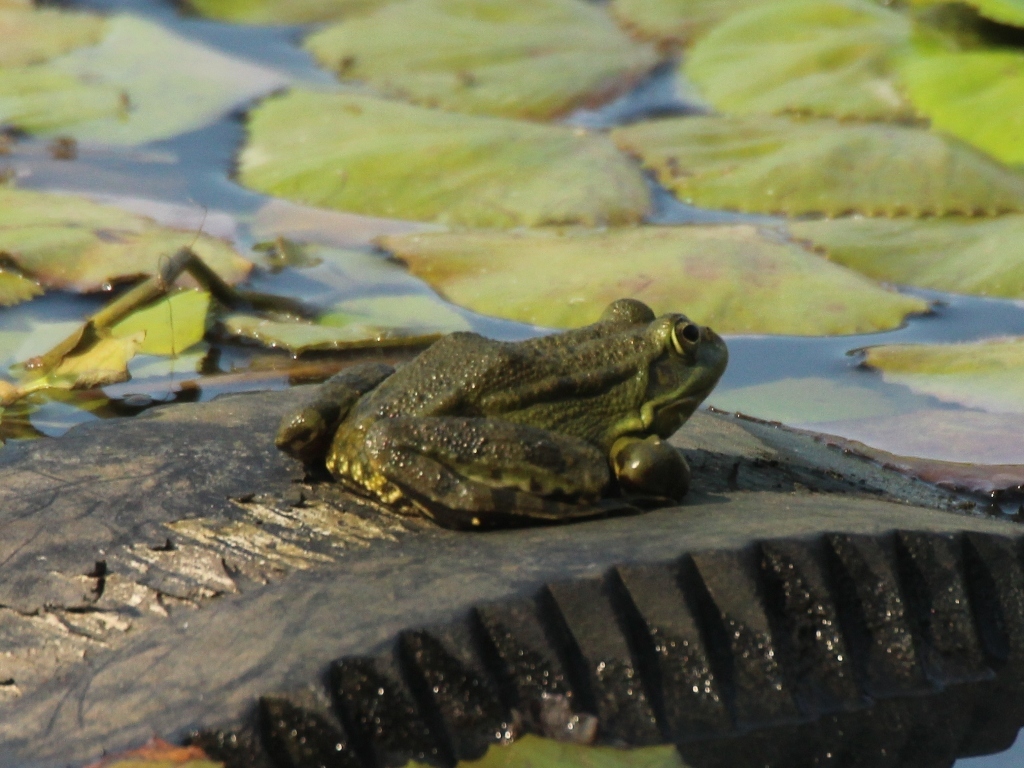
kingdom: Animalia
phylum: Chordata
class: Amphibia
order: Anura
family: Ranidae
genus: Pelophylax
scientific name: Pelophylax ridibundus
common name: Marsh frog
